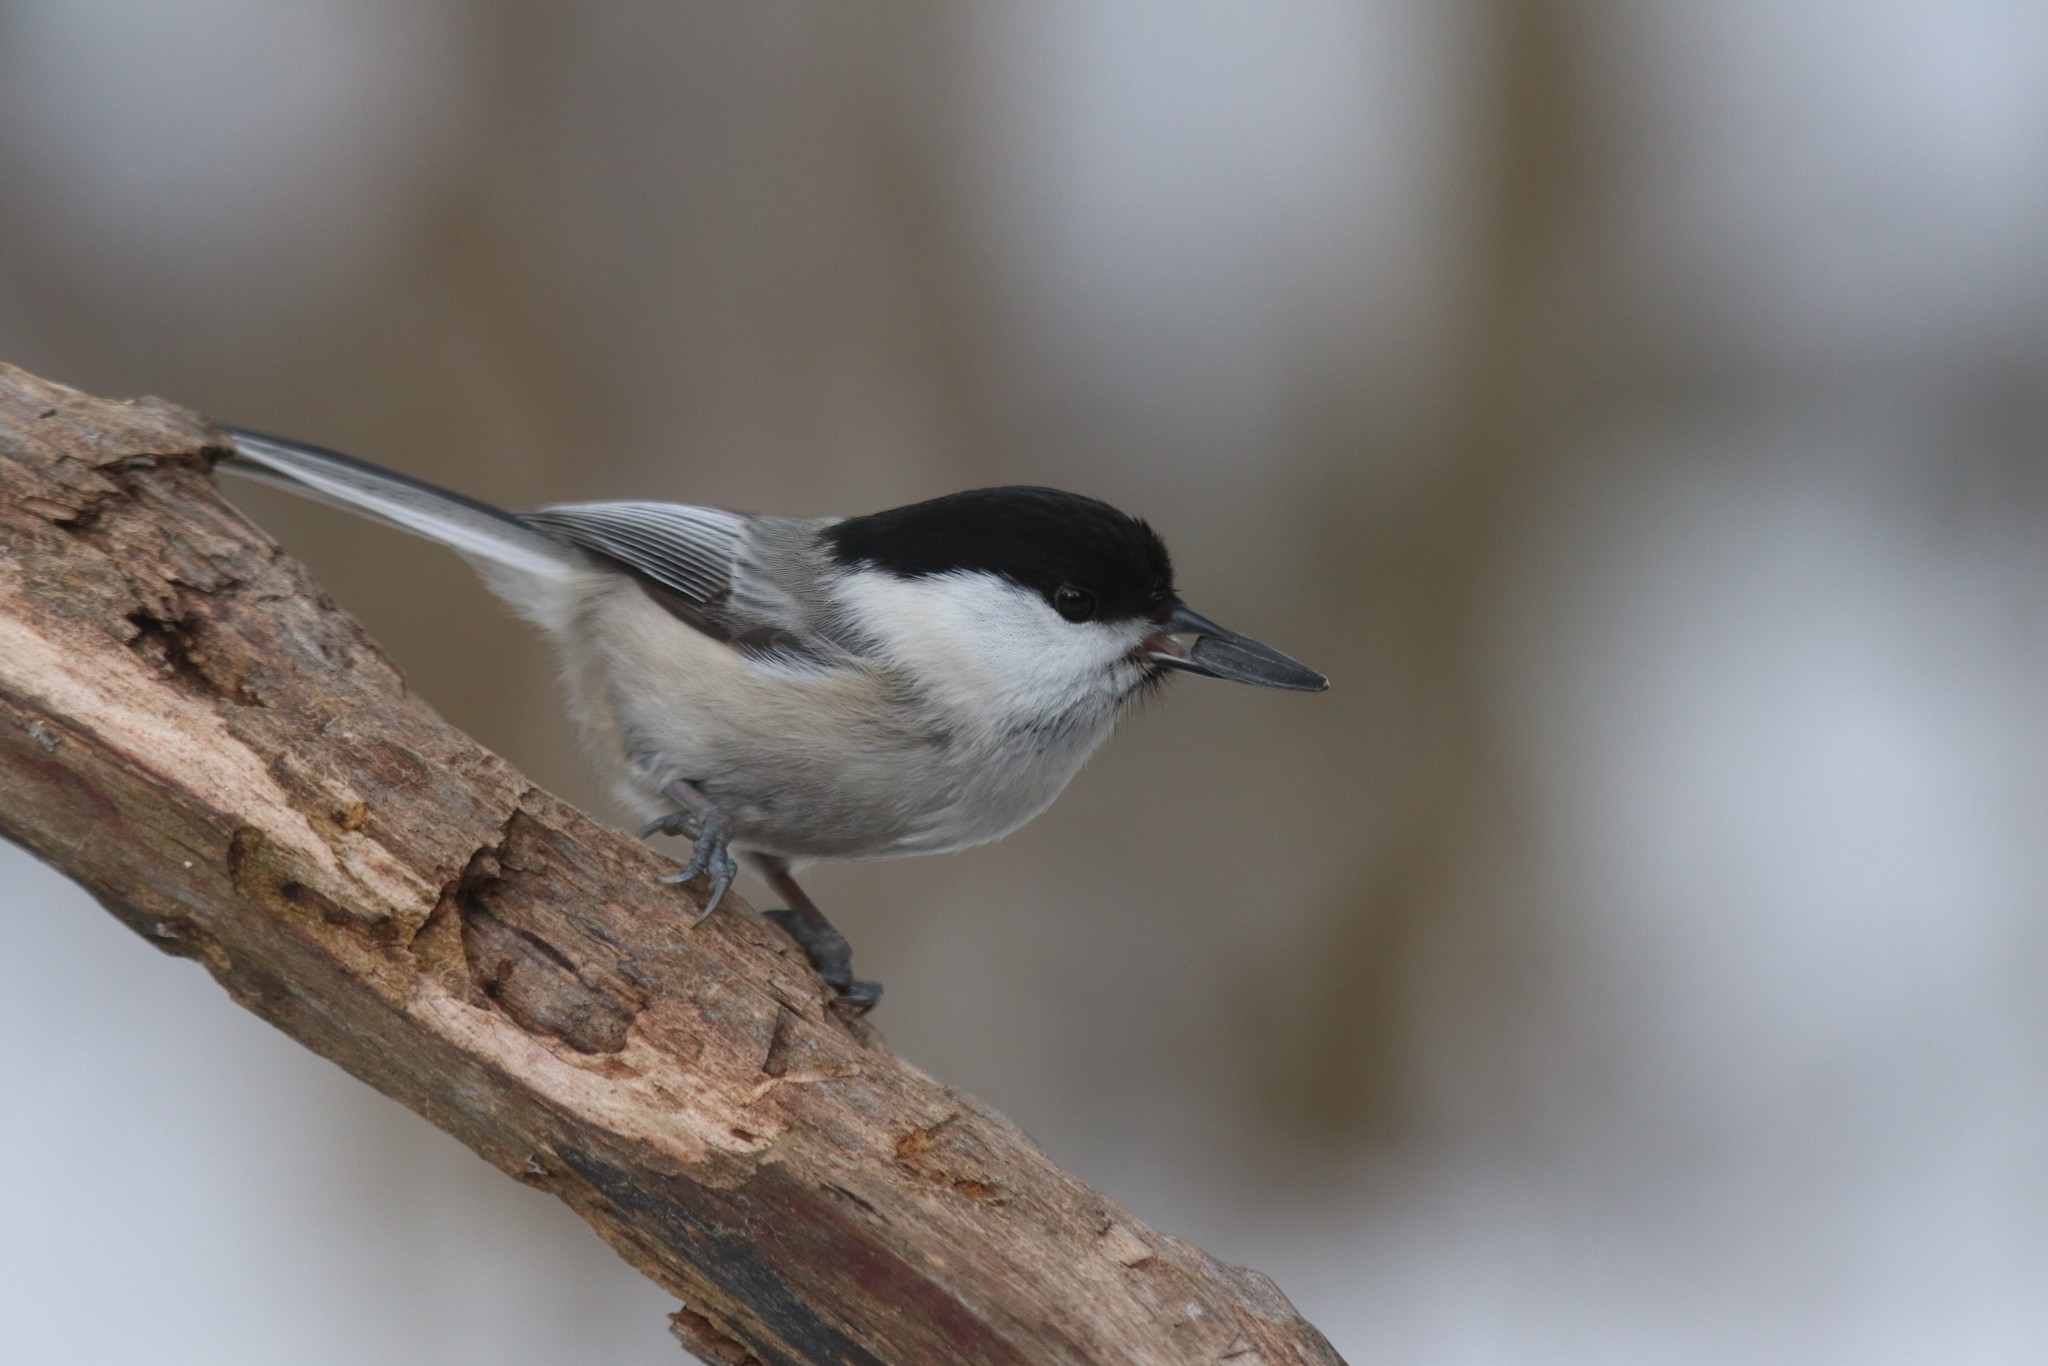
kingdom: Animalia
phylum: Chordata
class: Aves
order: Passeriformes
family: Paridae
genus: Poecile
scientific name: Poecile montanus
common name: Willow tit
